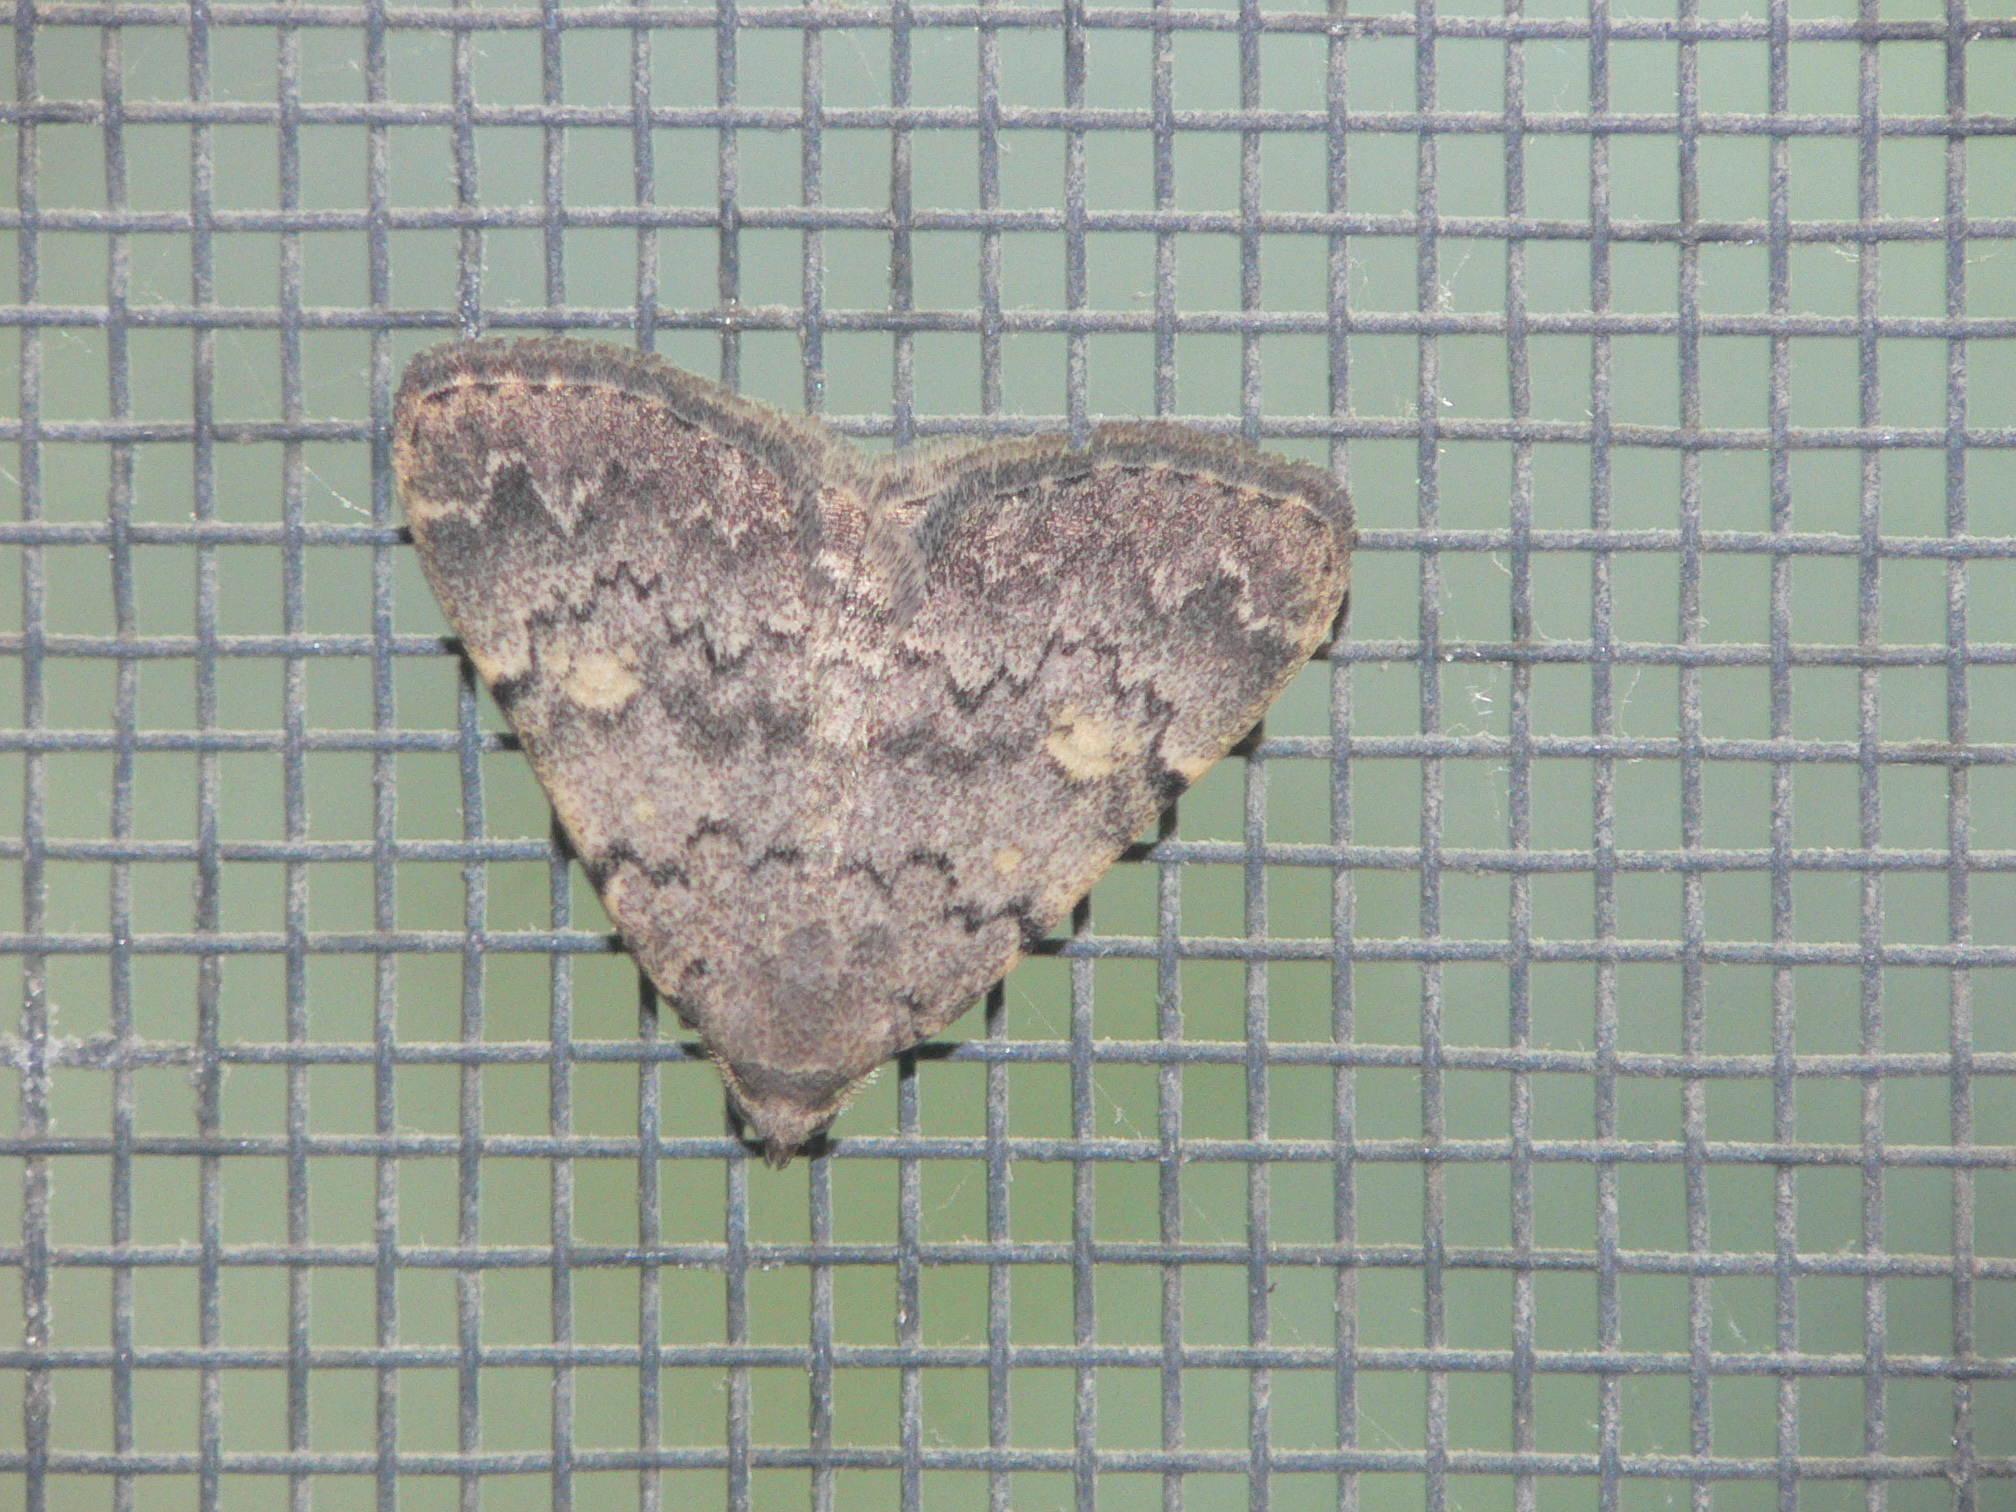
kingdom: Animalia
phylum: Arthropoda
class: Insecta
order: Lepidoptera
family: Erebidae
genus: Idia
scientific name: Idia aemula
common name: Common idia moth
